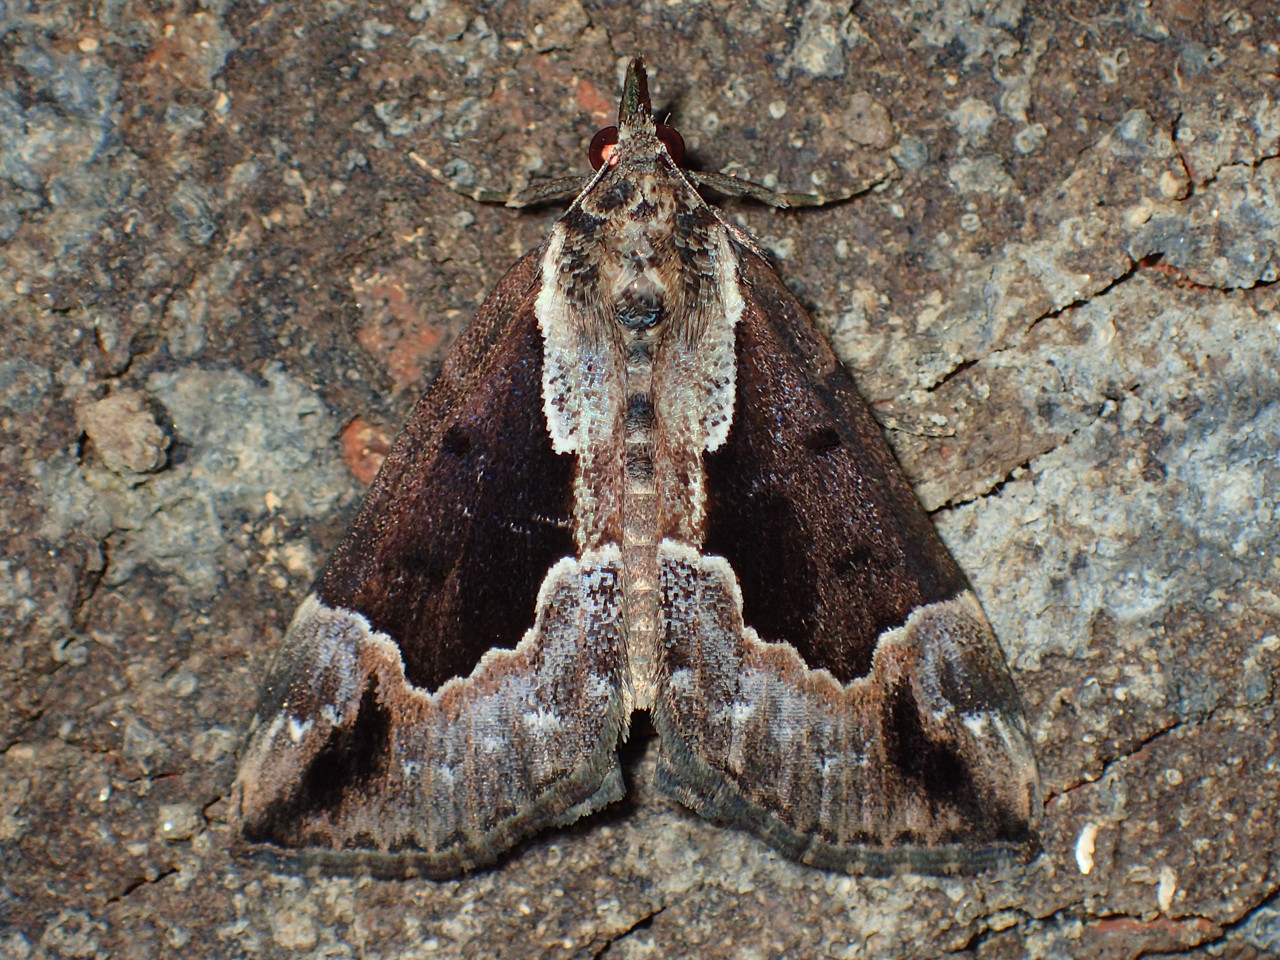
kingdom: Animalia
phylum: Arthropoda
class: Insecta
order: Lepidoptera
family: Erebidae
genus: Hypena
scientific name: Hypena baltimoralis
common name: Baltimore snout
